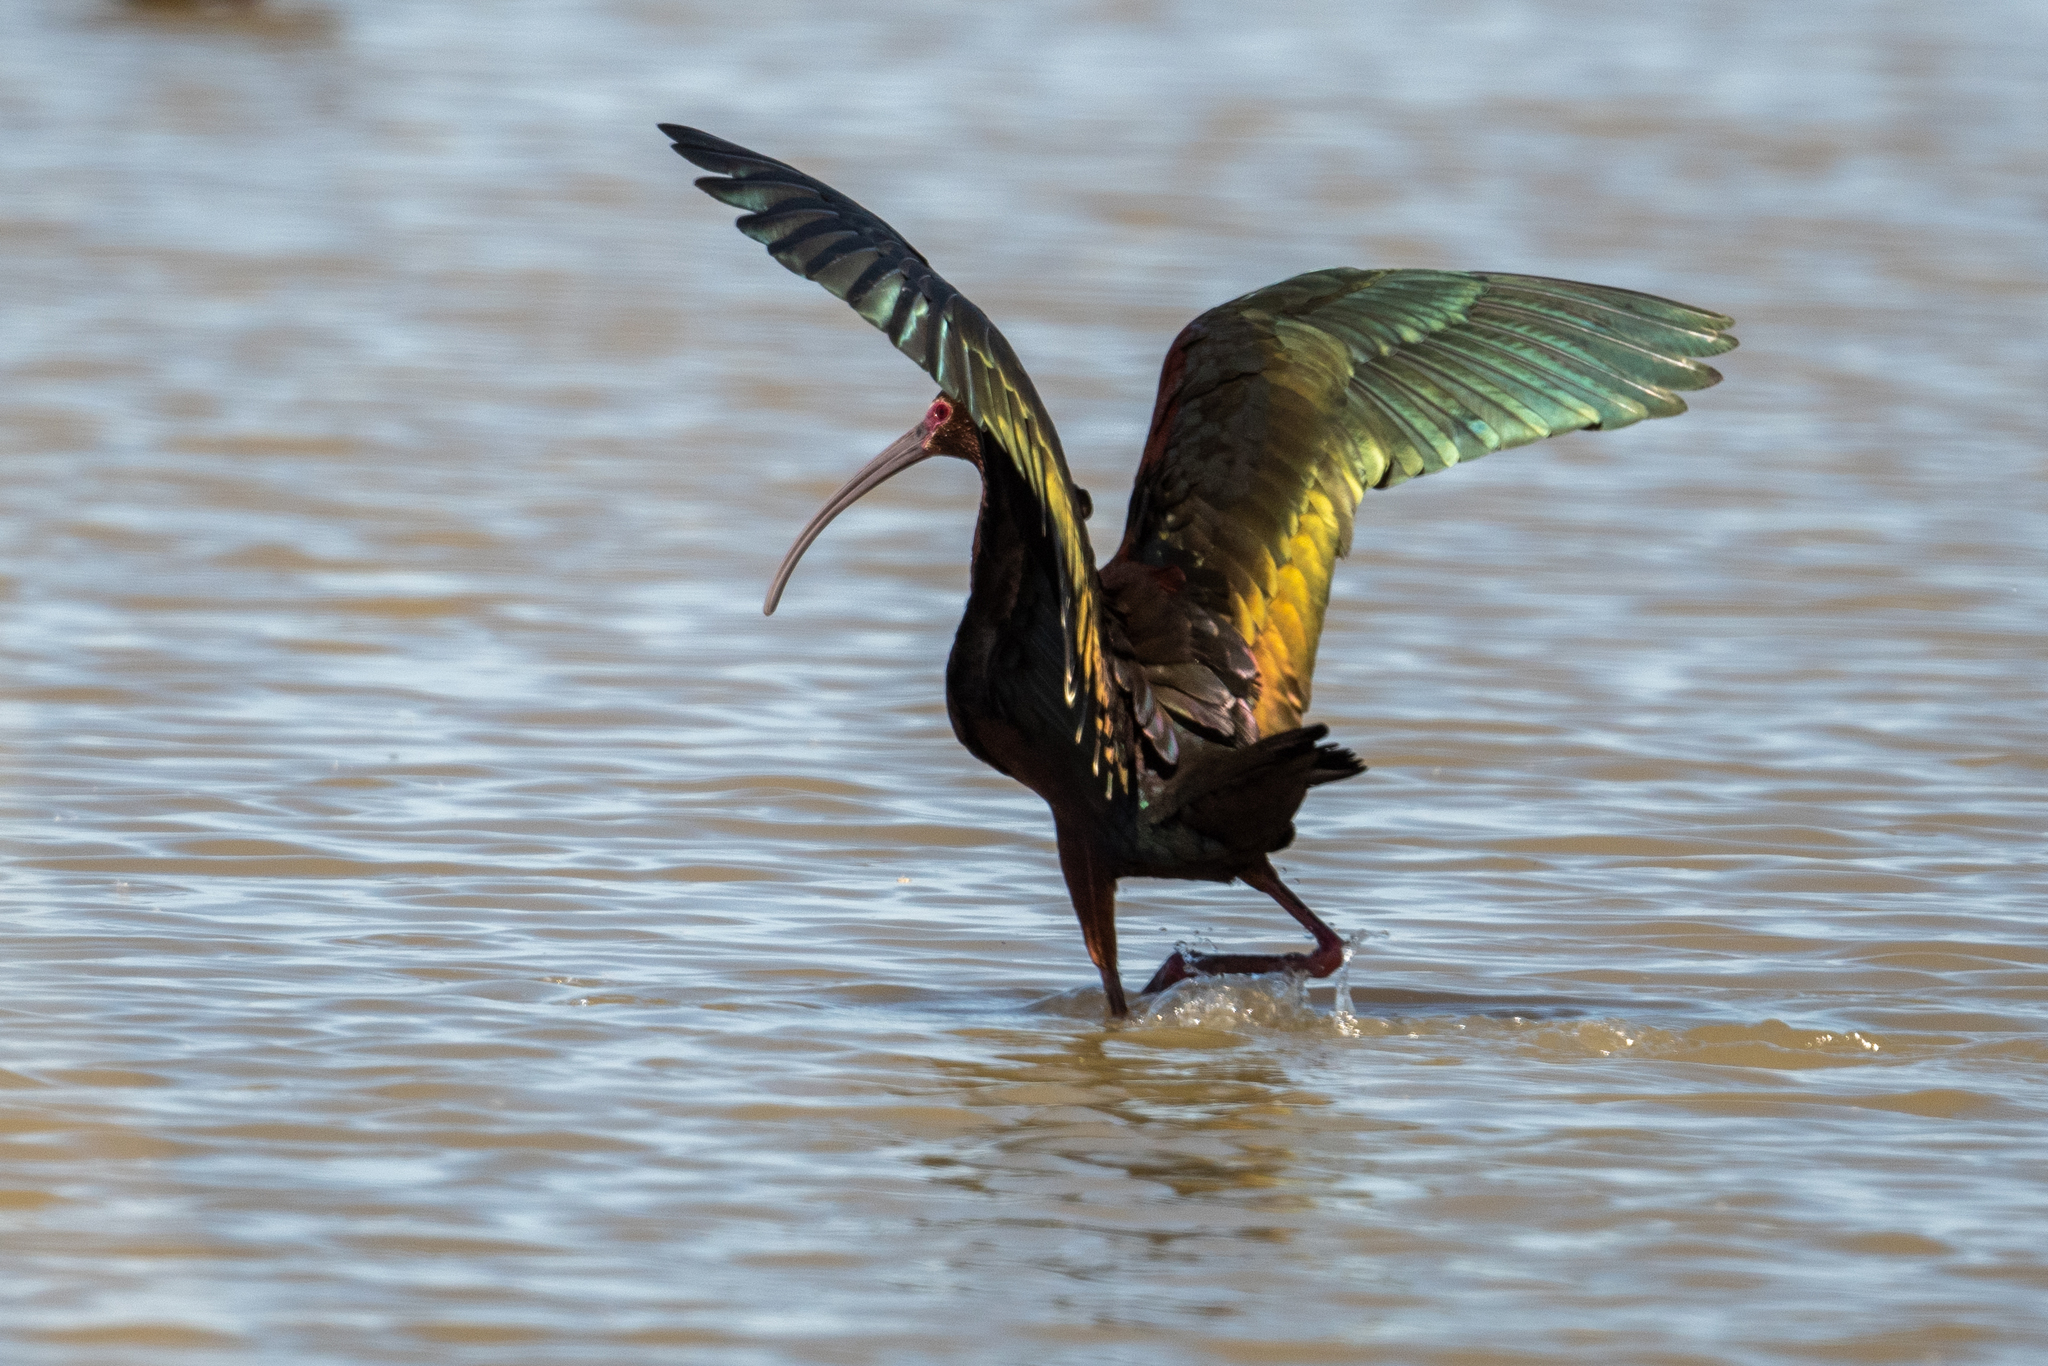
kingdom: Animalia
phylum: Chordata
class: Aves
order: Pelecaniformes
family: Threskiornithidae
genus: Plegadis
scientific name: Plegadis chihi
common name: White-faced ibis
